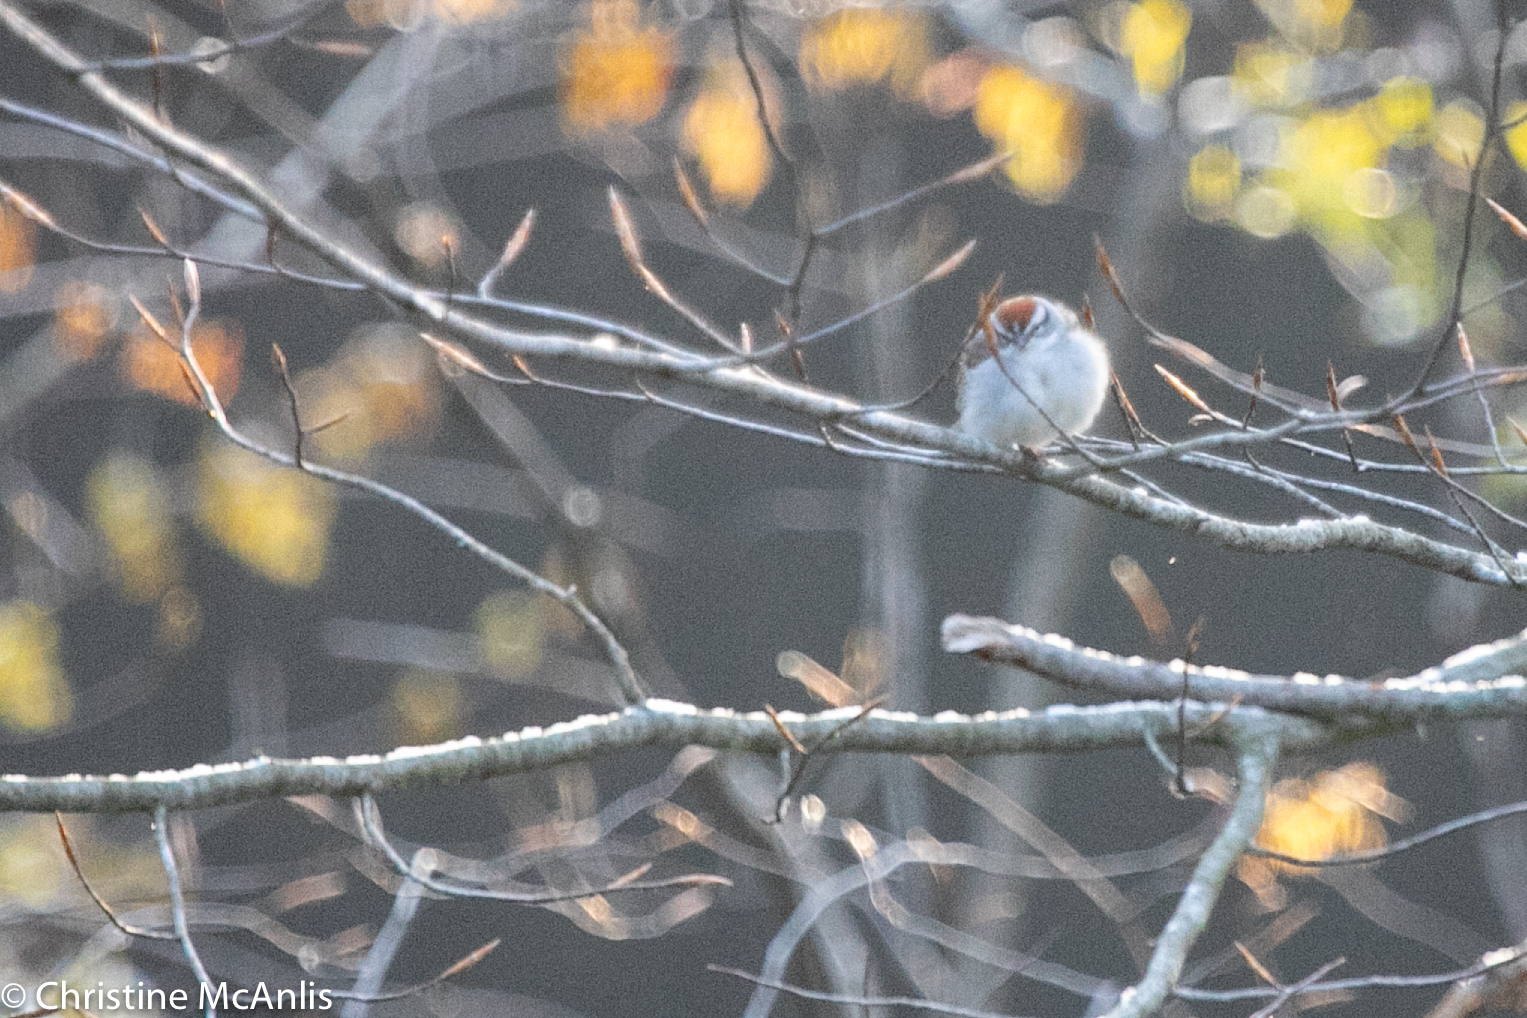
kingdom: Animalia
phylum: Chordata
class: Aves
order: Passeriformes
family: Passerellidae
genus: Spizella
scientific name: Spizella passerina
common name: Chipping sparrow
